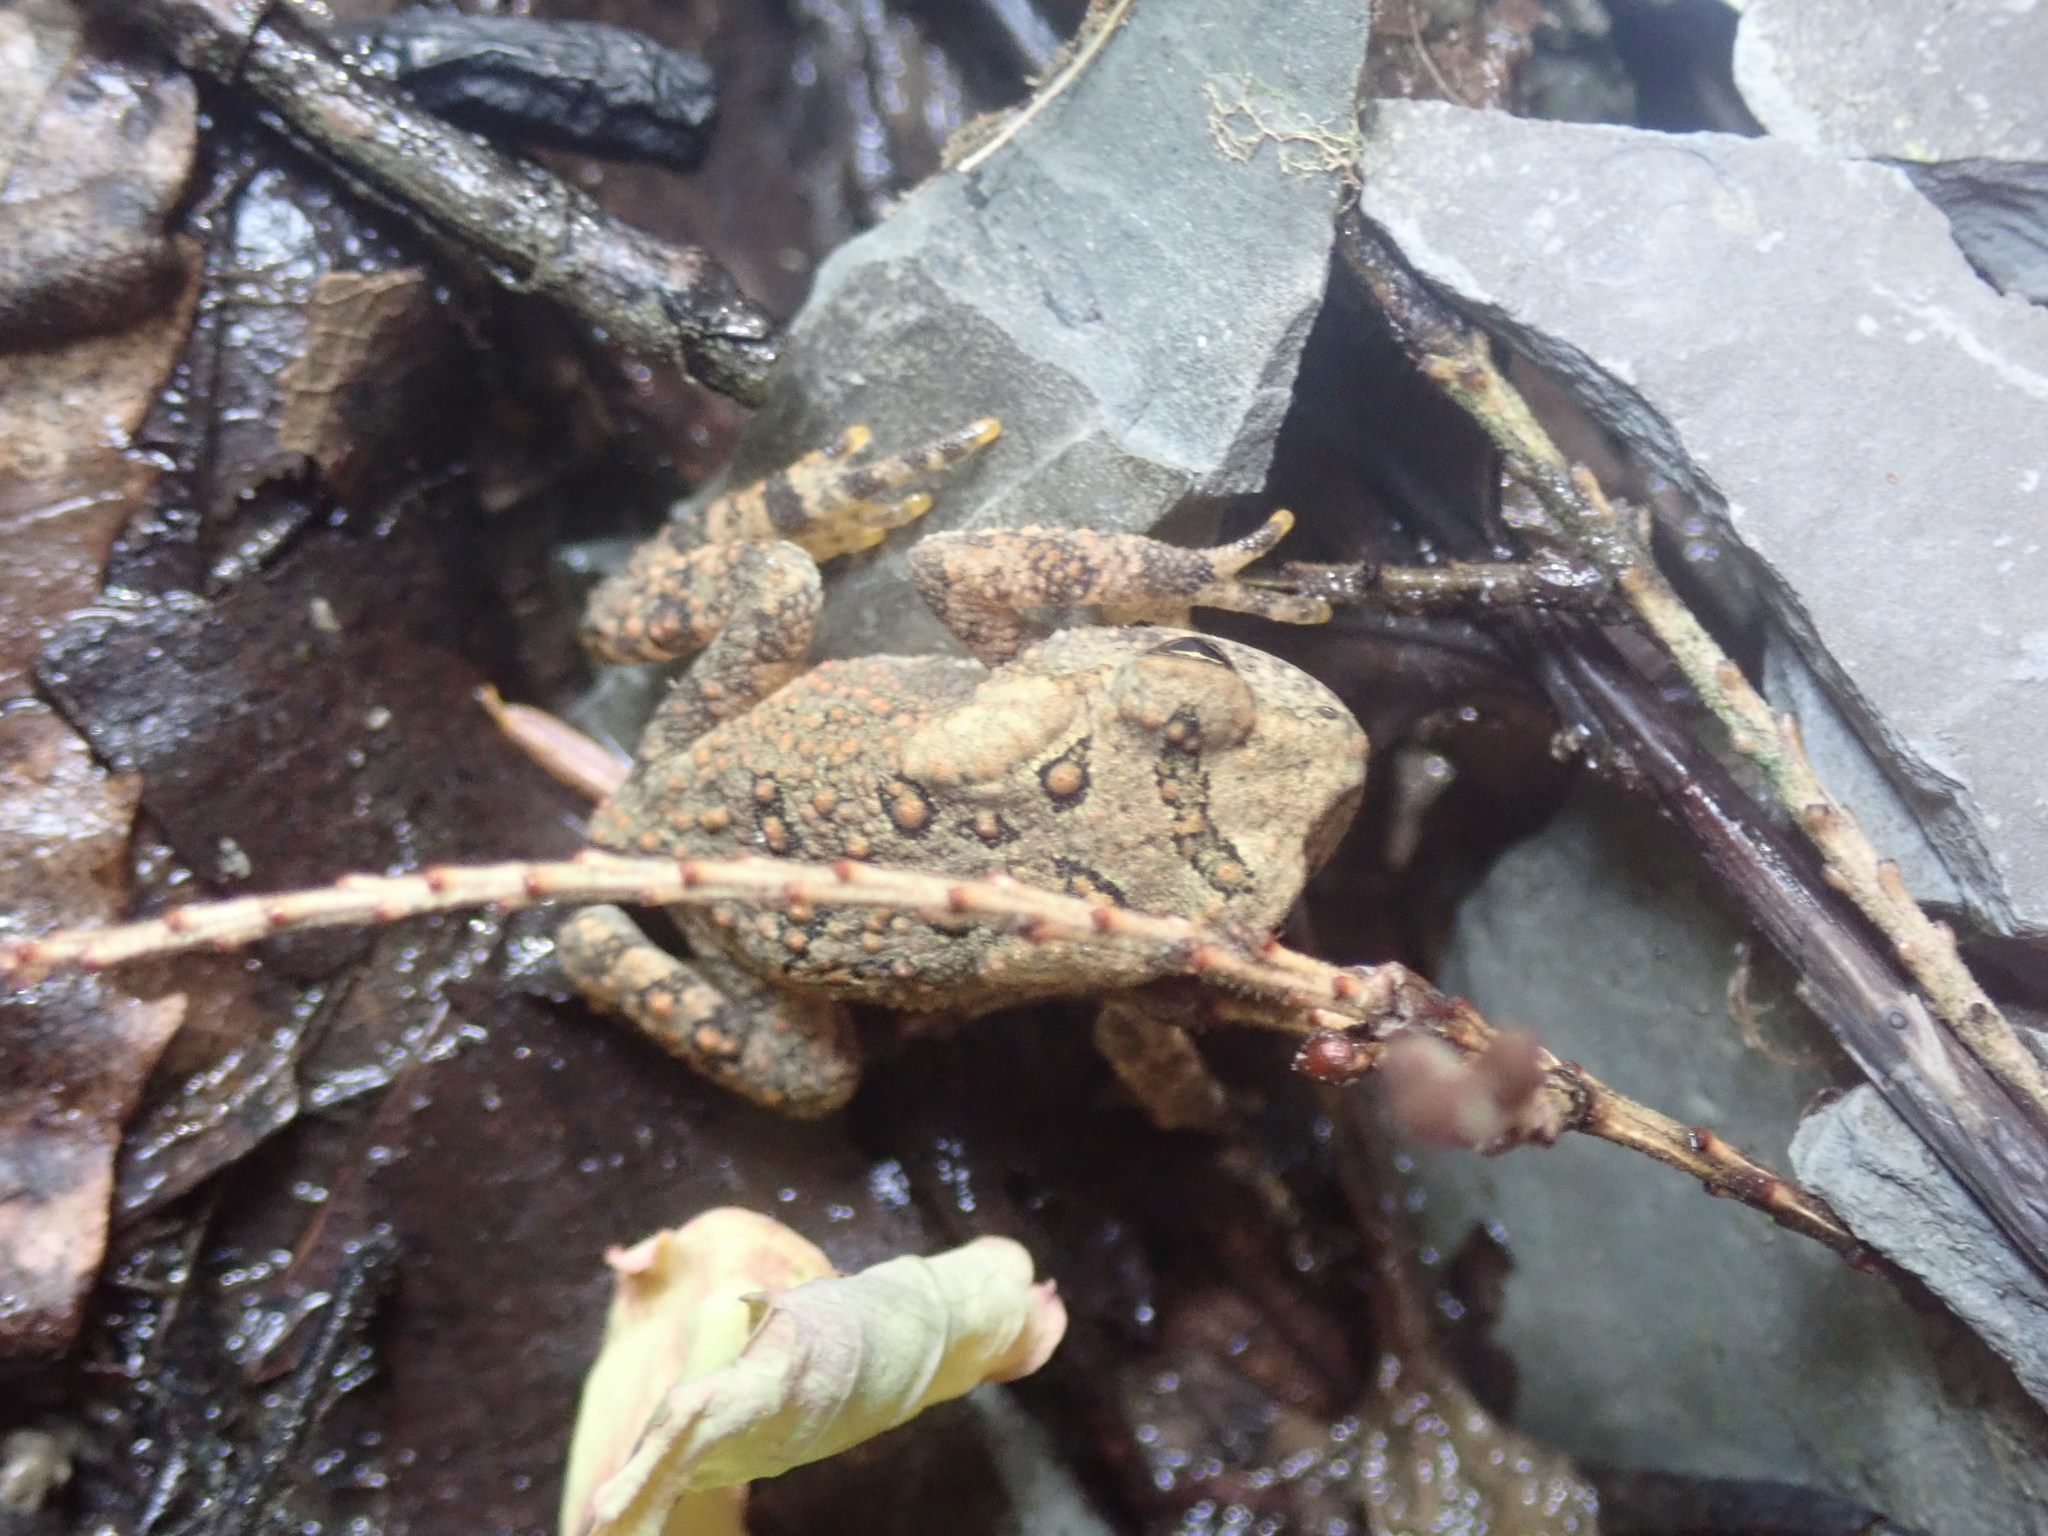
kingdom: Animalia
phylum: Chordata
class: Amphibia
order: Anura
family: Bufonidae
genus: Anaxyrus
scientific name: Anaxyrus americanus
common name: American toad
